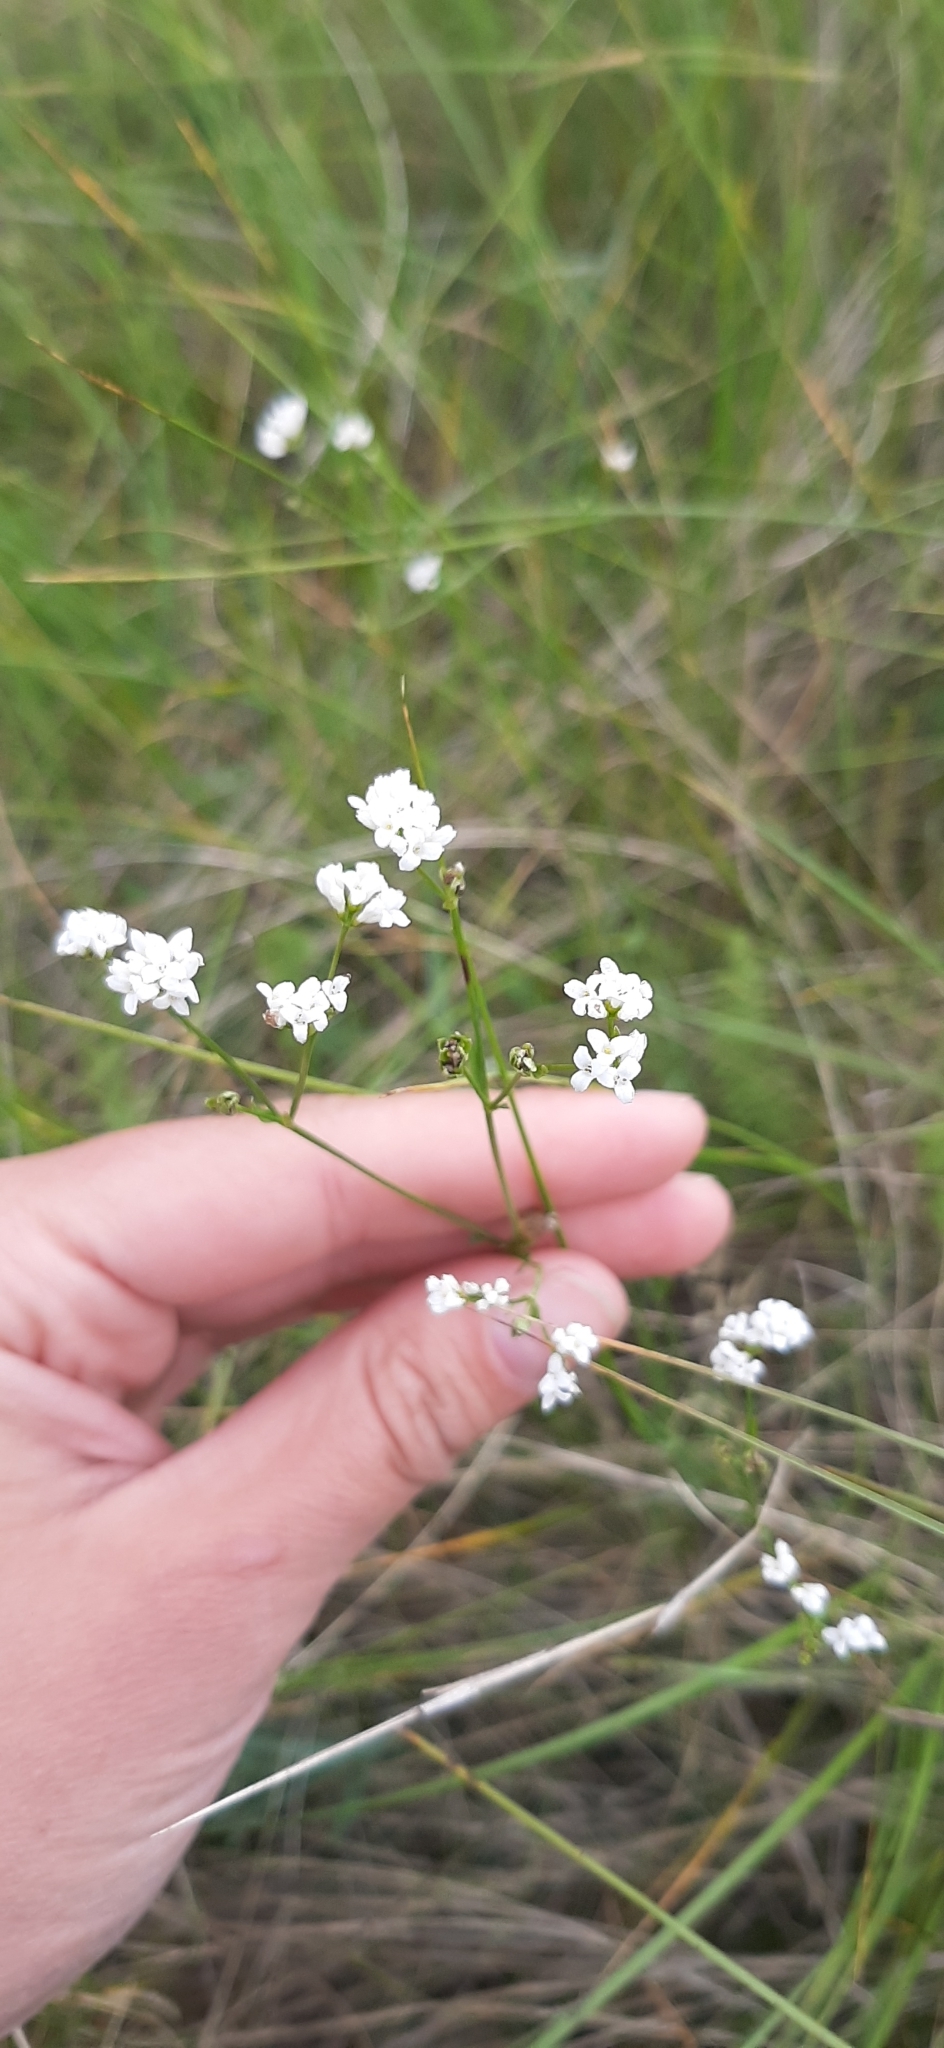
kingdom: Plantae
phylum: Tracheophyta
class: Magnoliopsida
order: Gentianales
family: Rubiaceae
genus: Asperula
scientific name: Asperula tinctoria
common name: Dyer's woodruff
